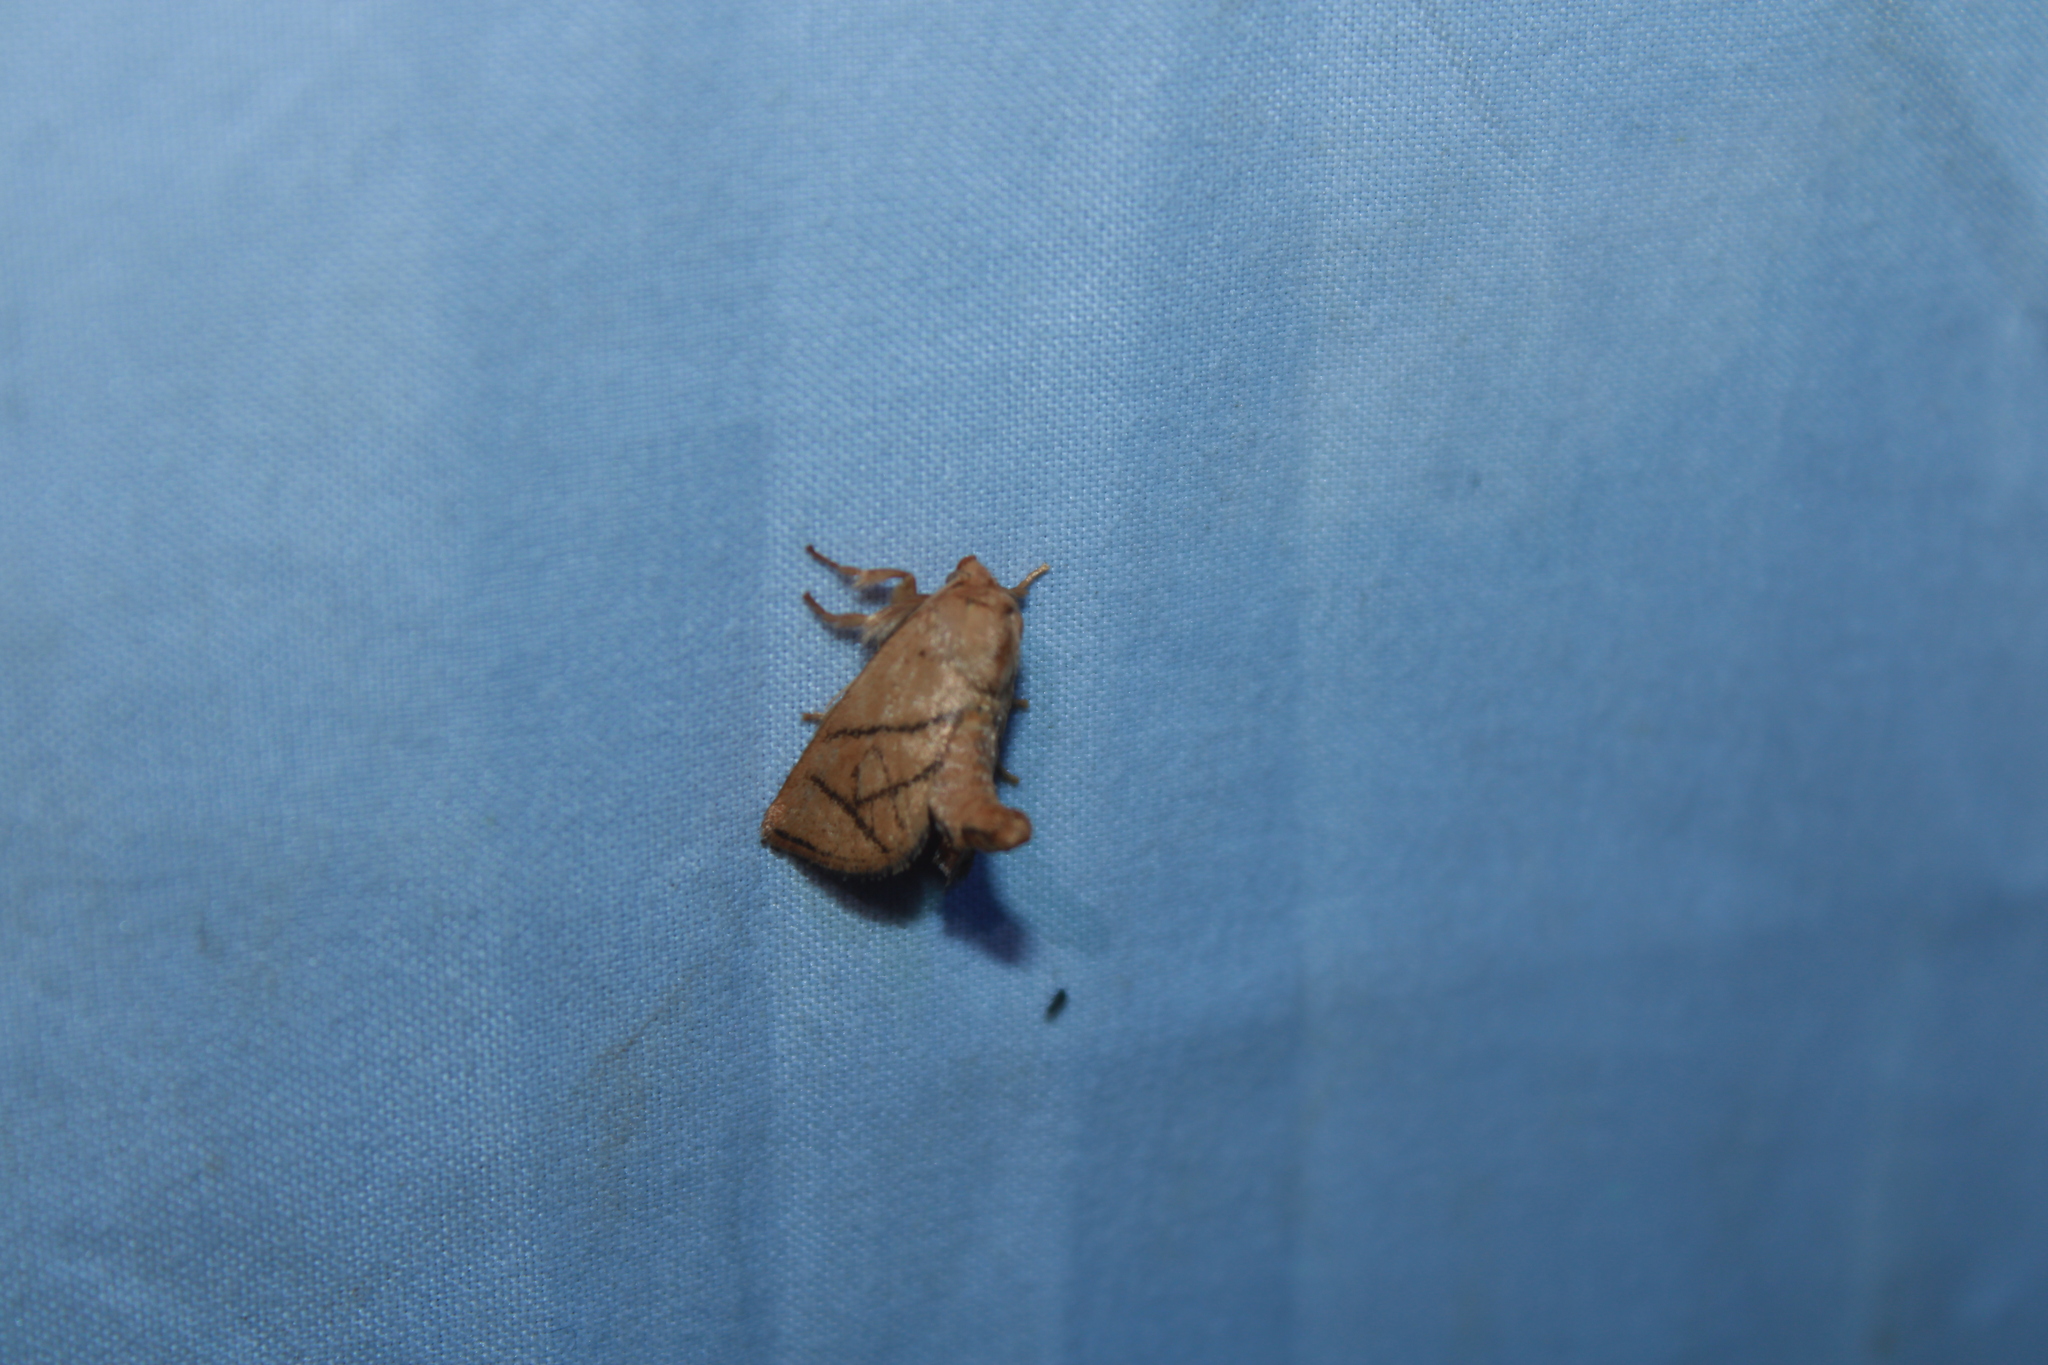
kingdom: Animalia
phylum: Arthropoda
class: Insecta
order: Lepidoptera
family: Limacodidae
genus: Apoda
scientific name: Apoda y-inversa
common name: Yellow-collared slug moth
